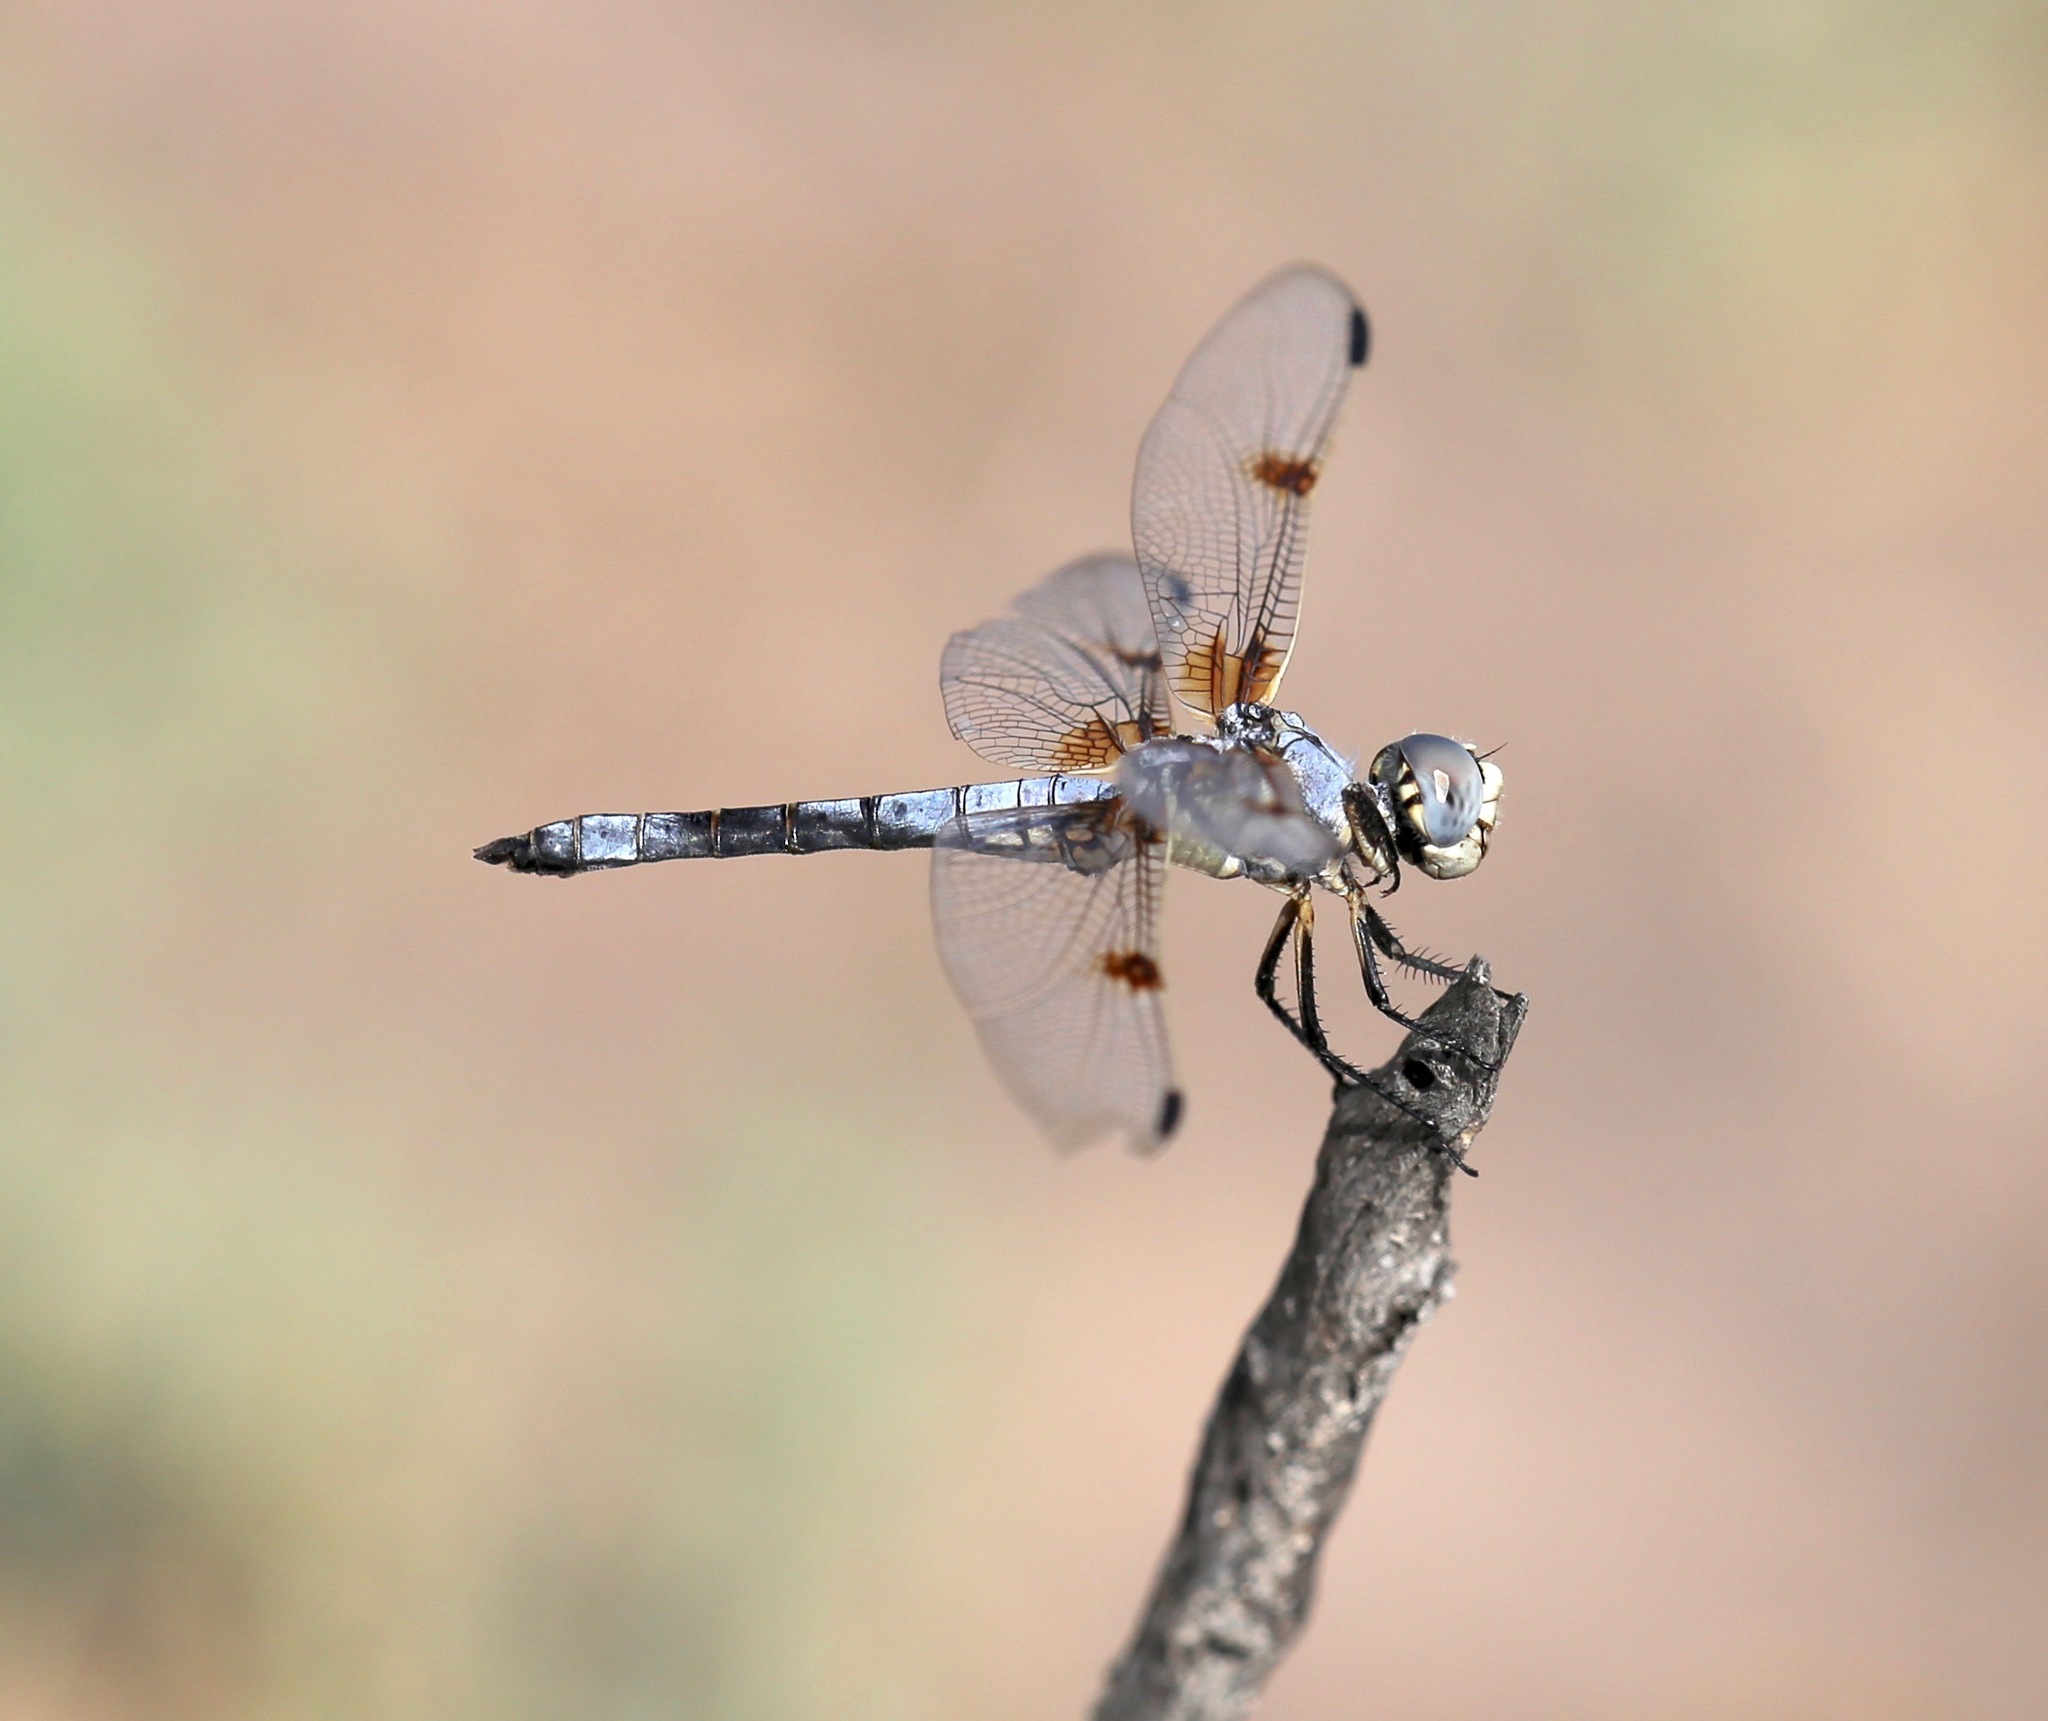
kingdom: Animalia
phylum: Arthropoda
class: Insecta
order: Odonata
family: Libellulidae
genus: Libellula
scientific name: Libellula composita
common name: Bleached skimmer
